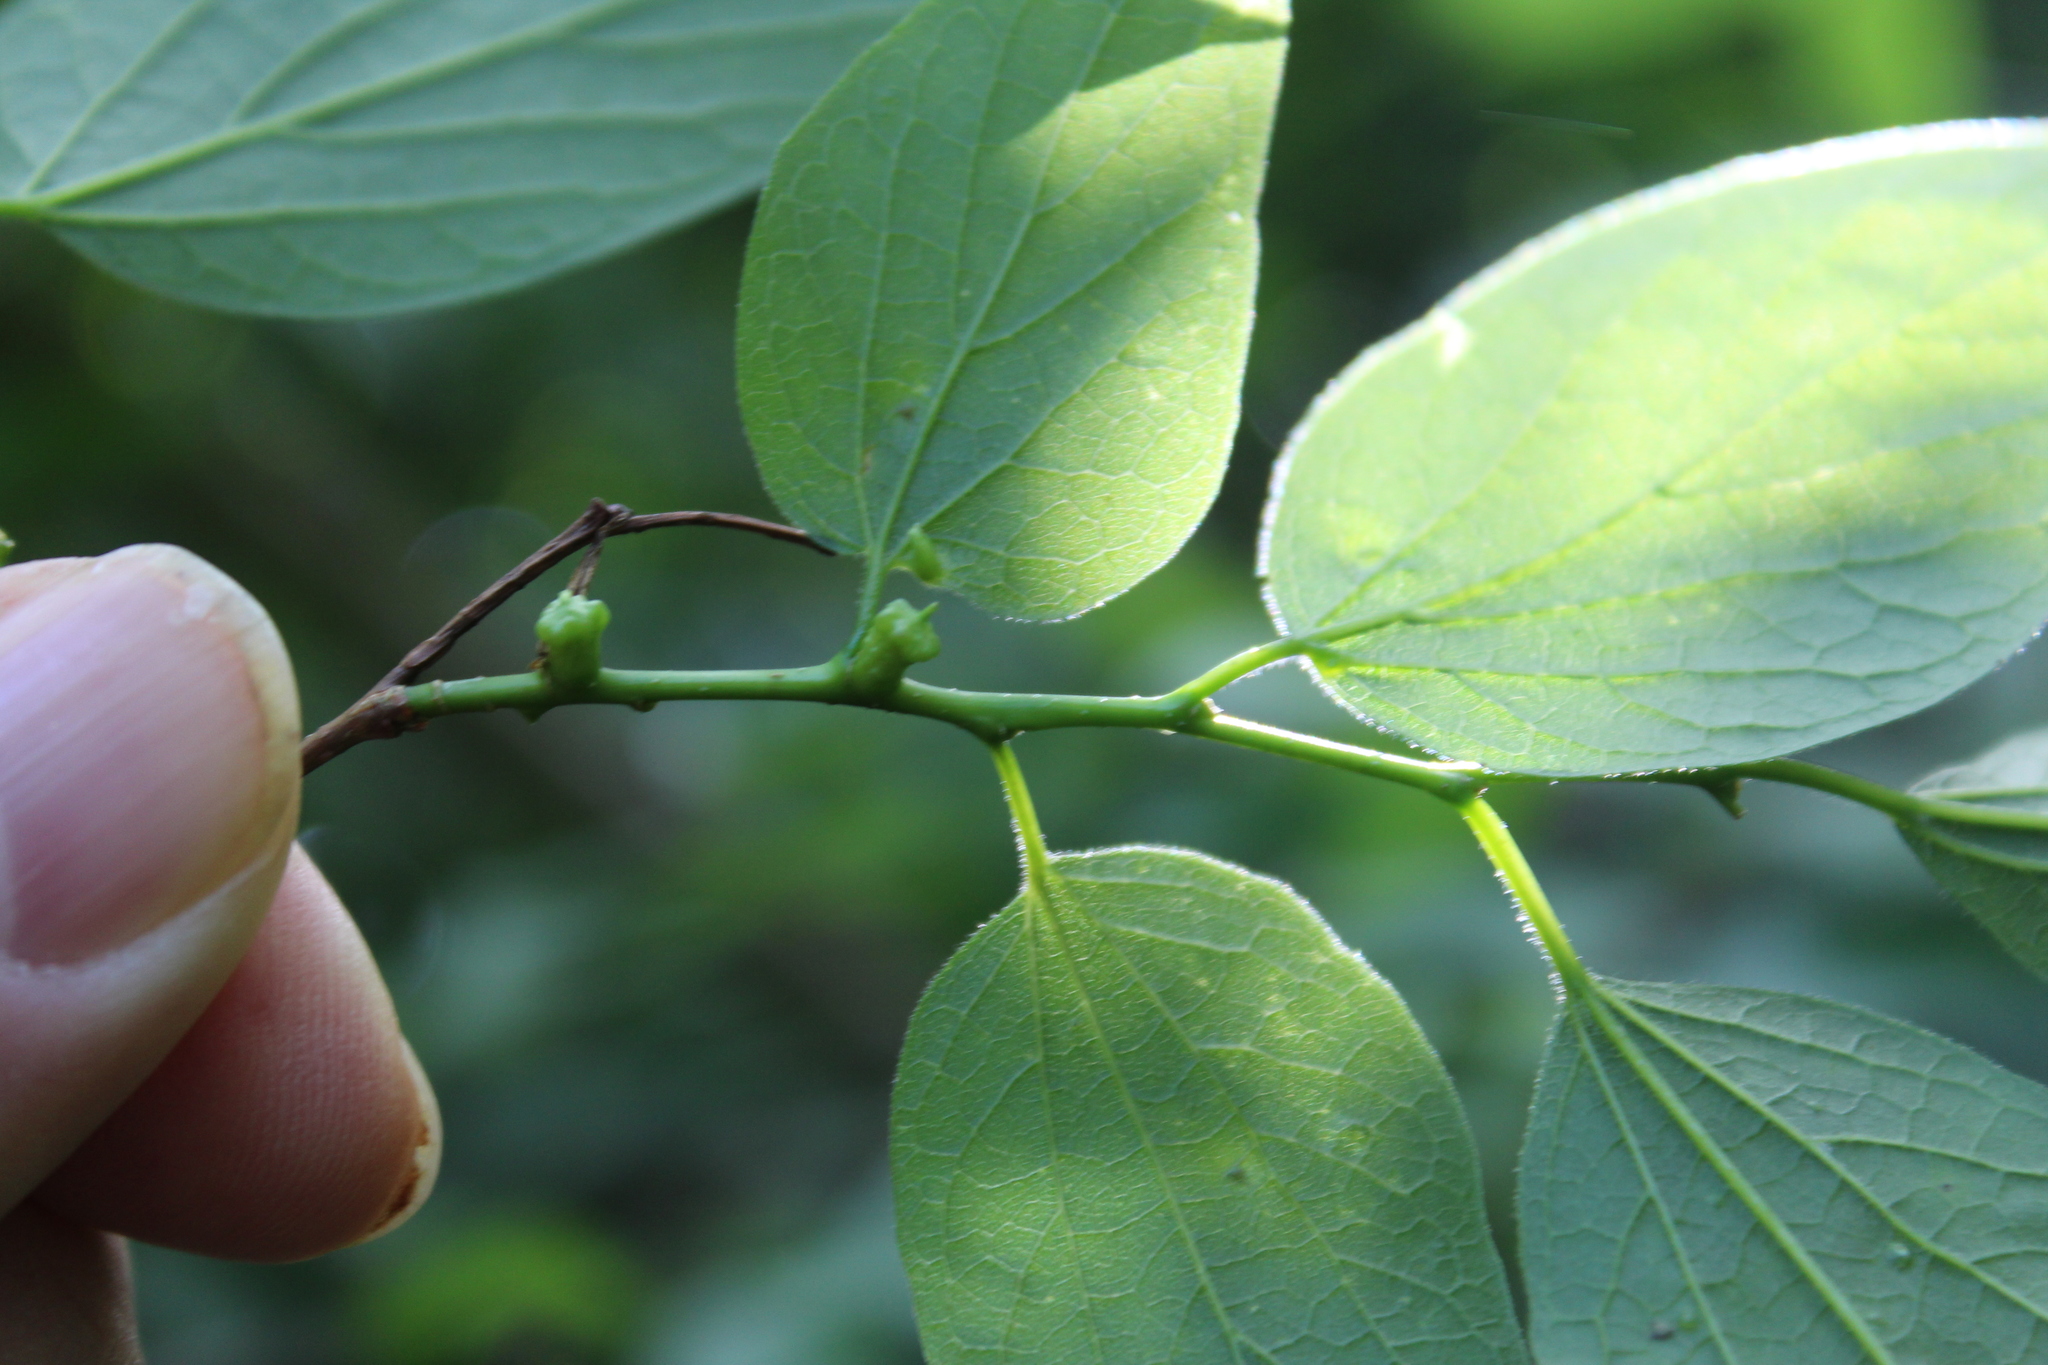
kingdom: Animalia
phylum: Arthropoda
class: Insecta
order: Diptera
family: Cecidomyiidae
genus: Celticecis
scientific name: Celticecis ramicola
